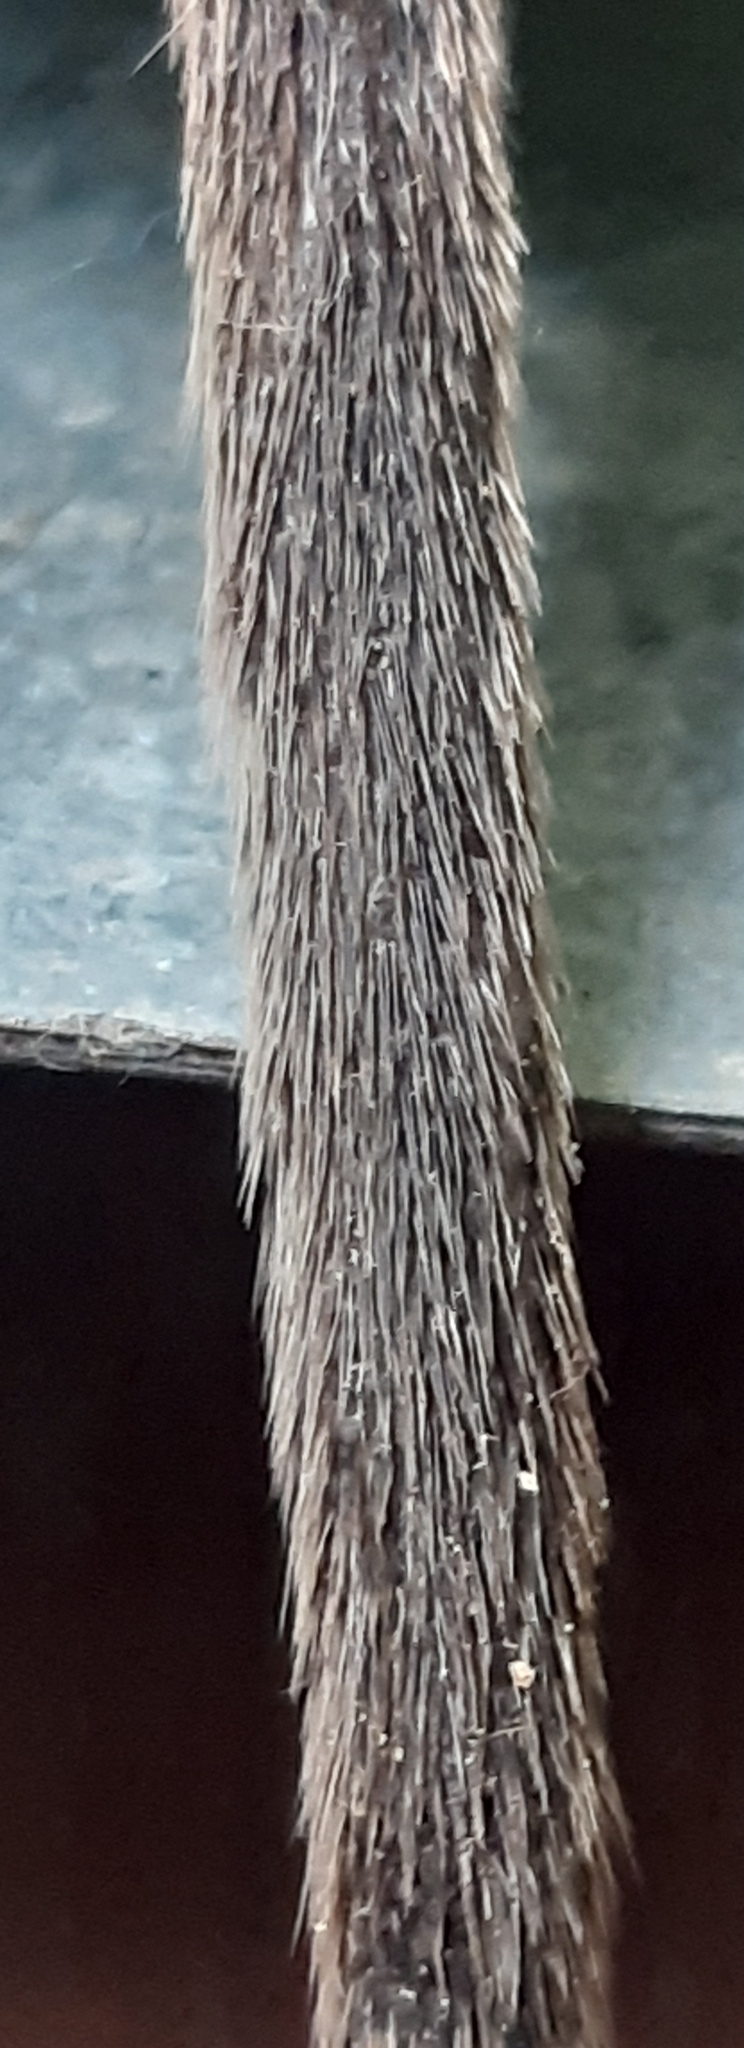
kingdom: Animalia
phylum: Chordata
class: Mammalia
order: Rodentia
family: Muridae
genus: Rattus
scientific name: Rattus norvegicus
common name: Brown rat
